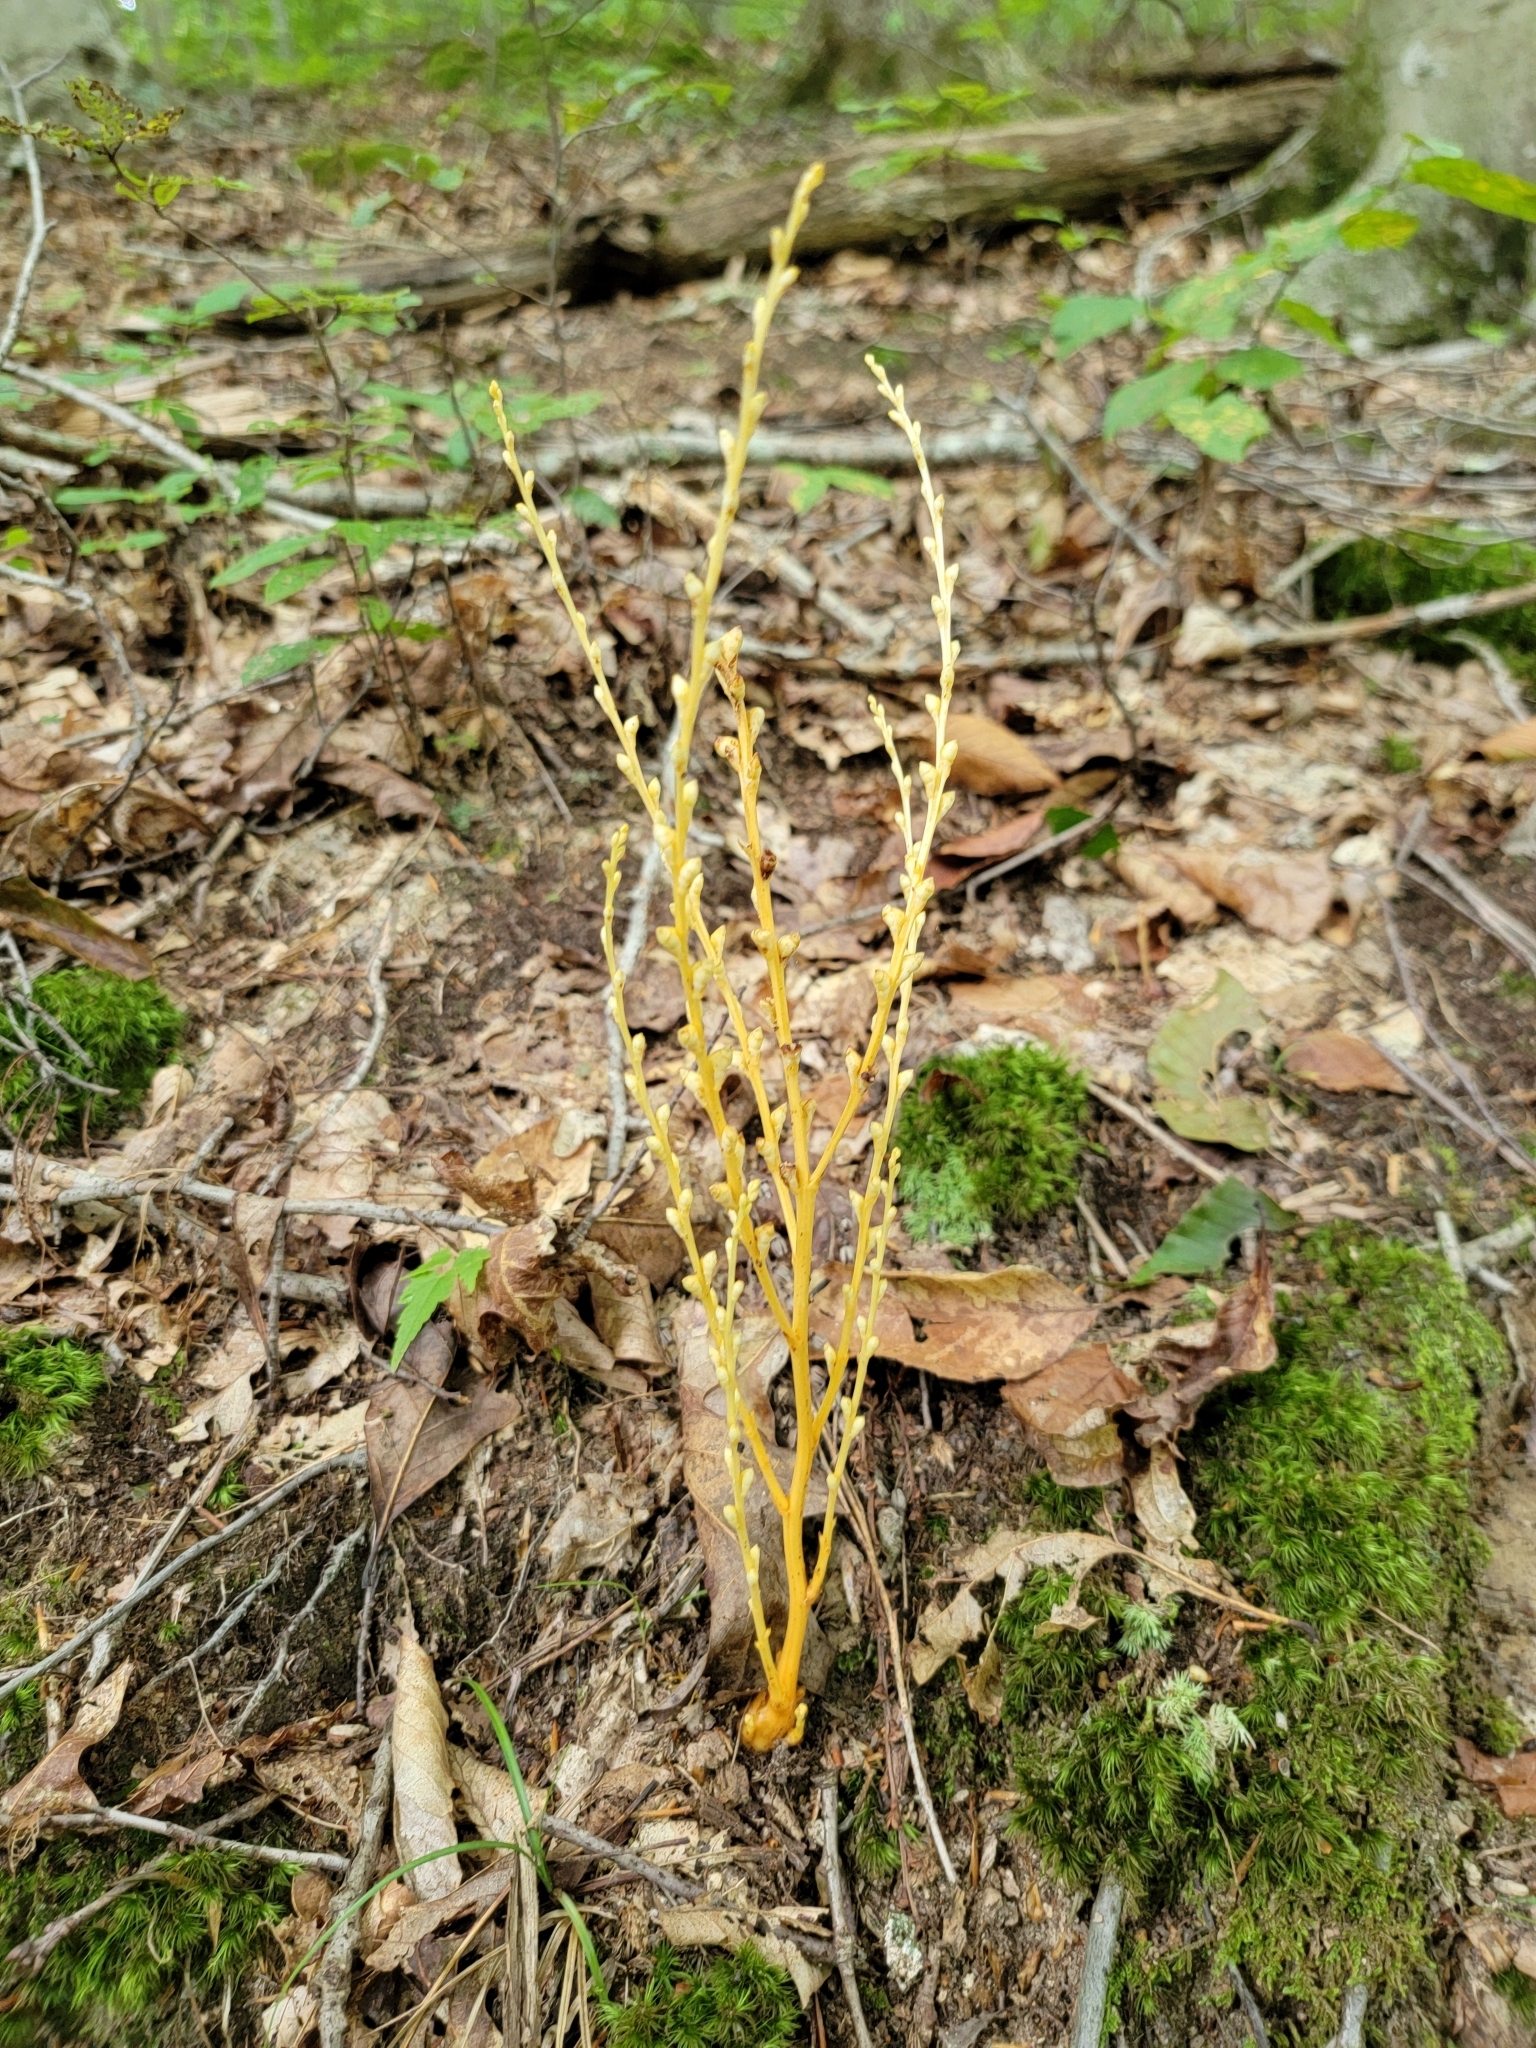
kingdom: Plantae
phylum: Tracheophyta
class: Magnoliopsida
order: Lamiales
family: Orobanchaceae
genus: Epifagus
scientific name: Epifagus virginiana
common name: Beechdrops
